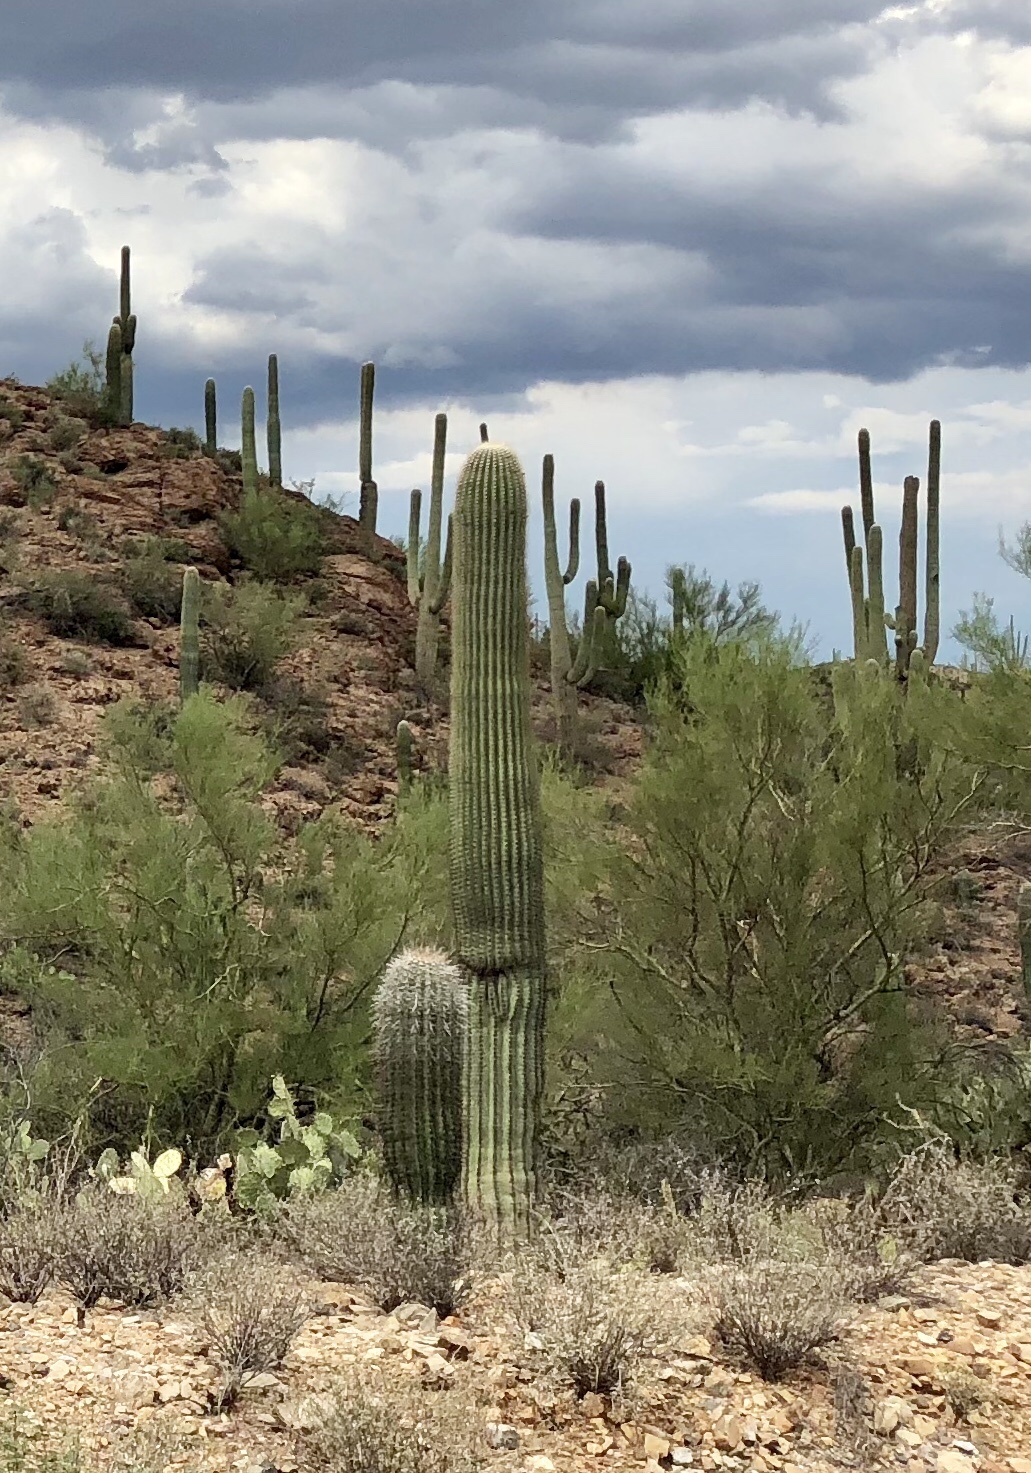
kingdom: Plantae
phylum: Tracheophyta
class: Magnoliopsida
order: Caryophyllales
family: Cactaceae
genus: Carnegiea
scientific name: Carnegiea gigantea
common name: Saguaro
